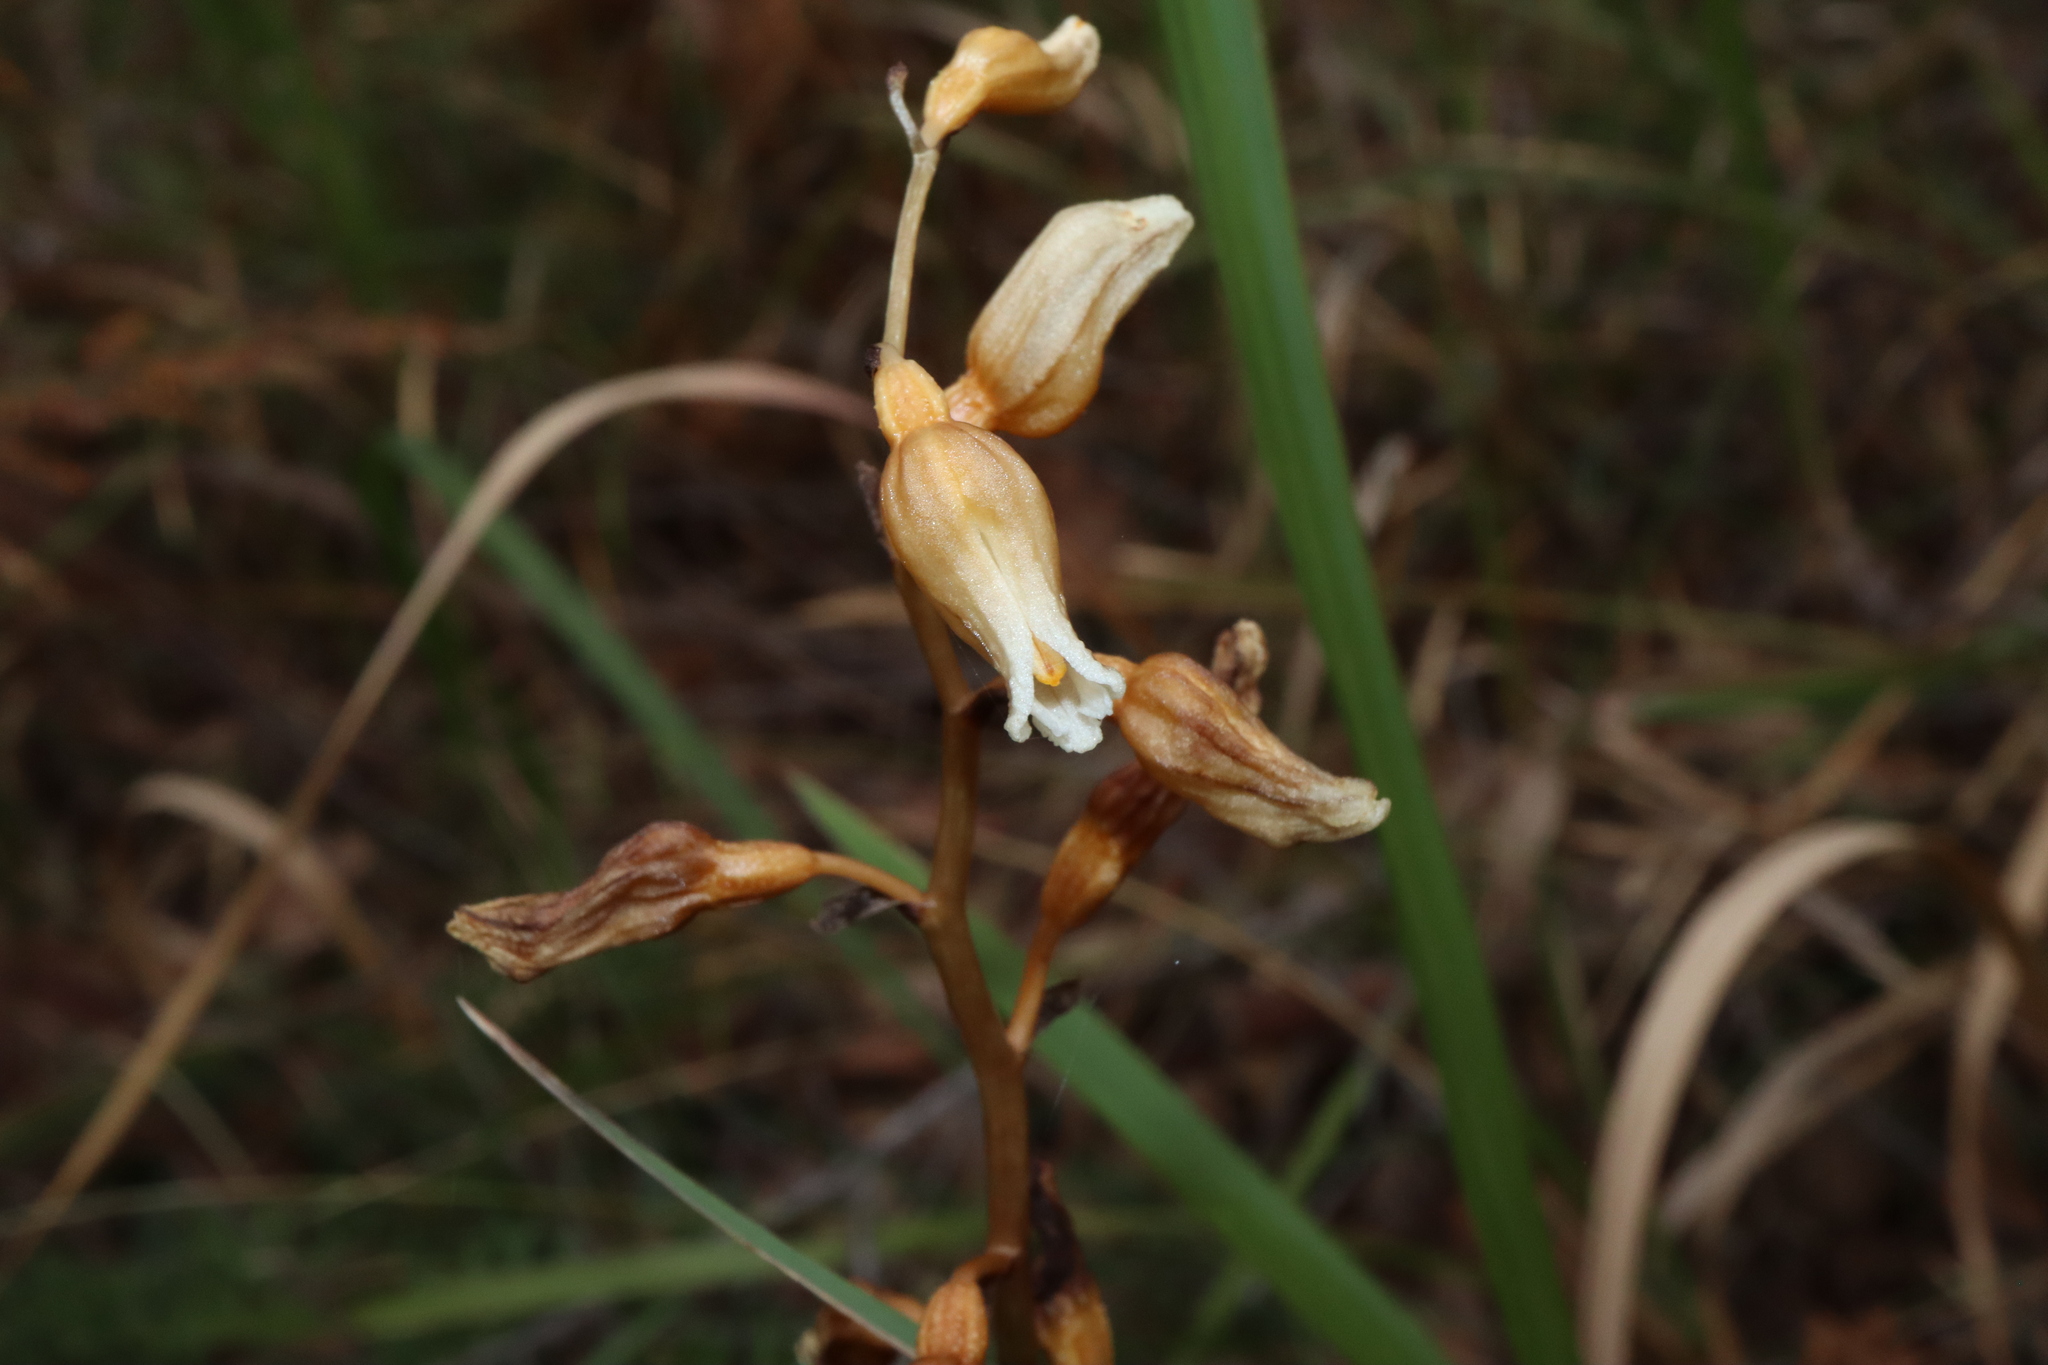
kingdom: Plantae
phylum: Tracheophyta
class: Liliopsida
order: Asparagales
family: Orchidaceae
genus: Gastrodia
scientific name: Gastrodia sesamoides
